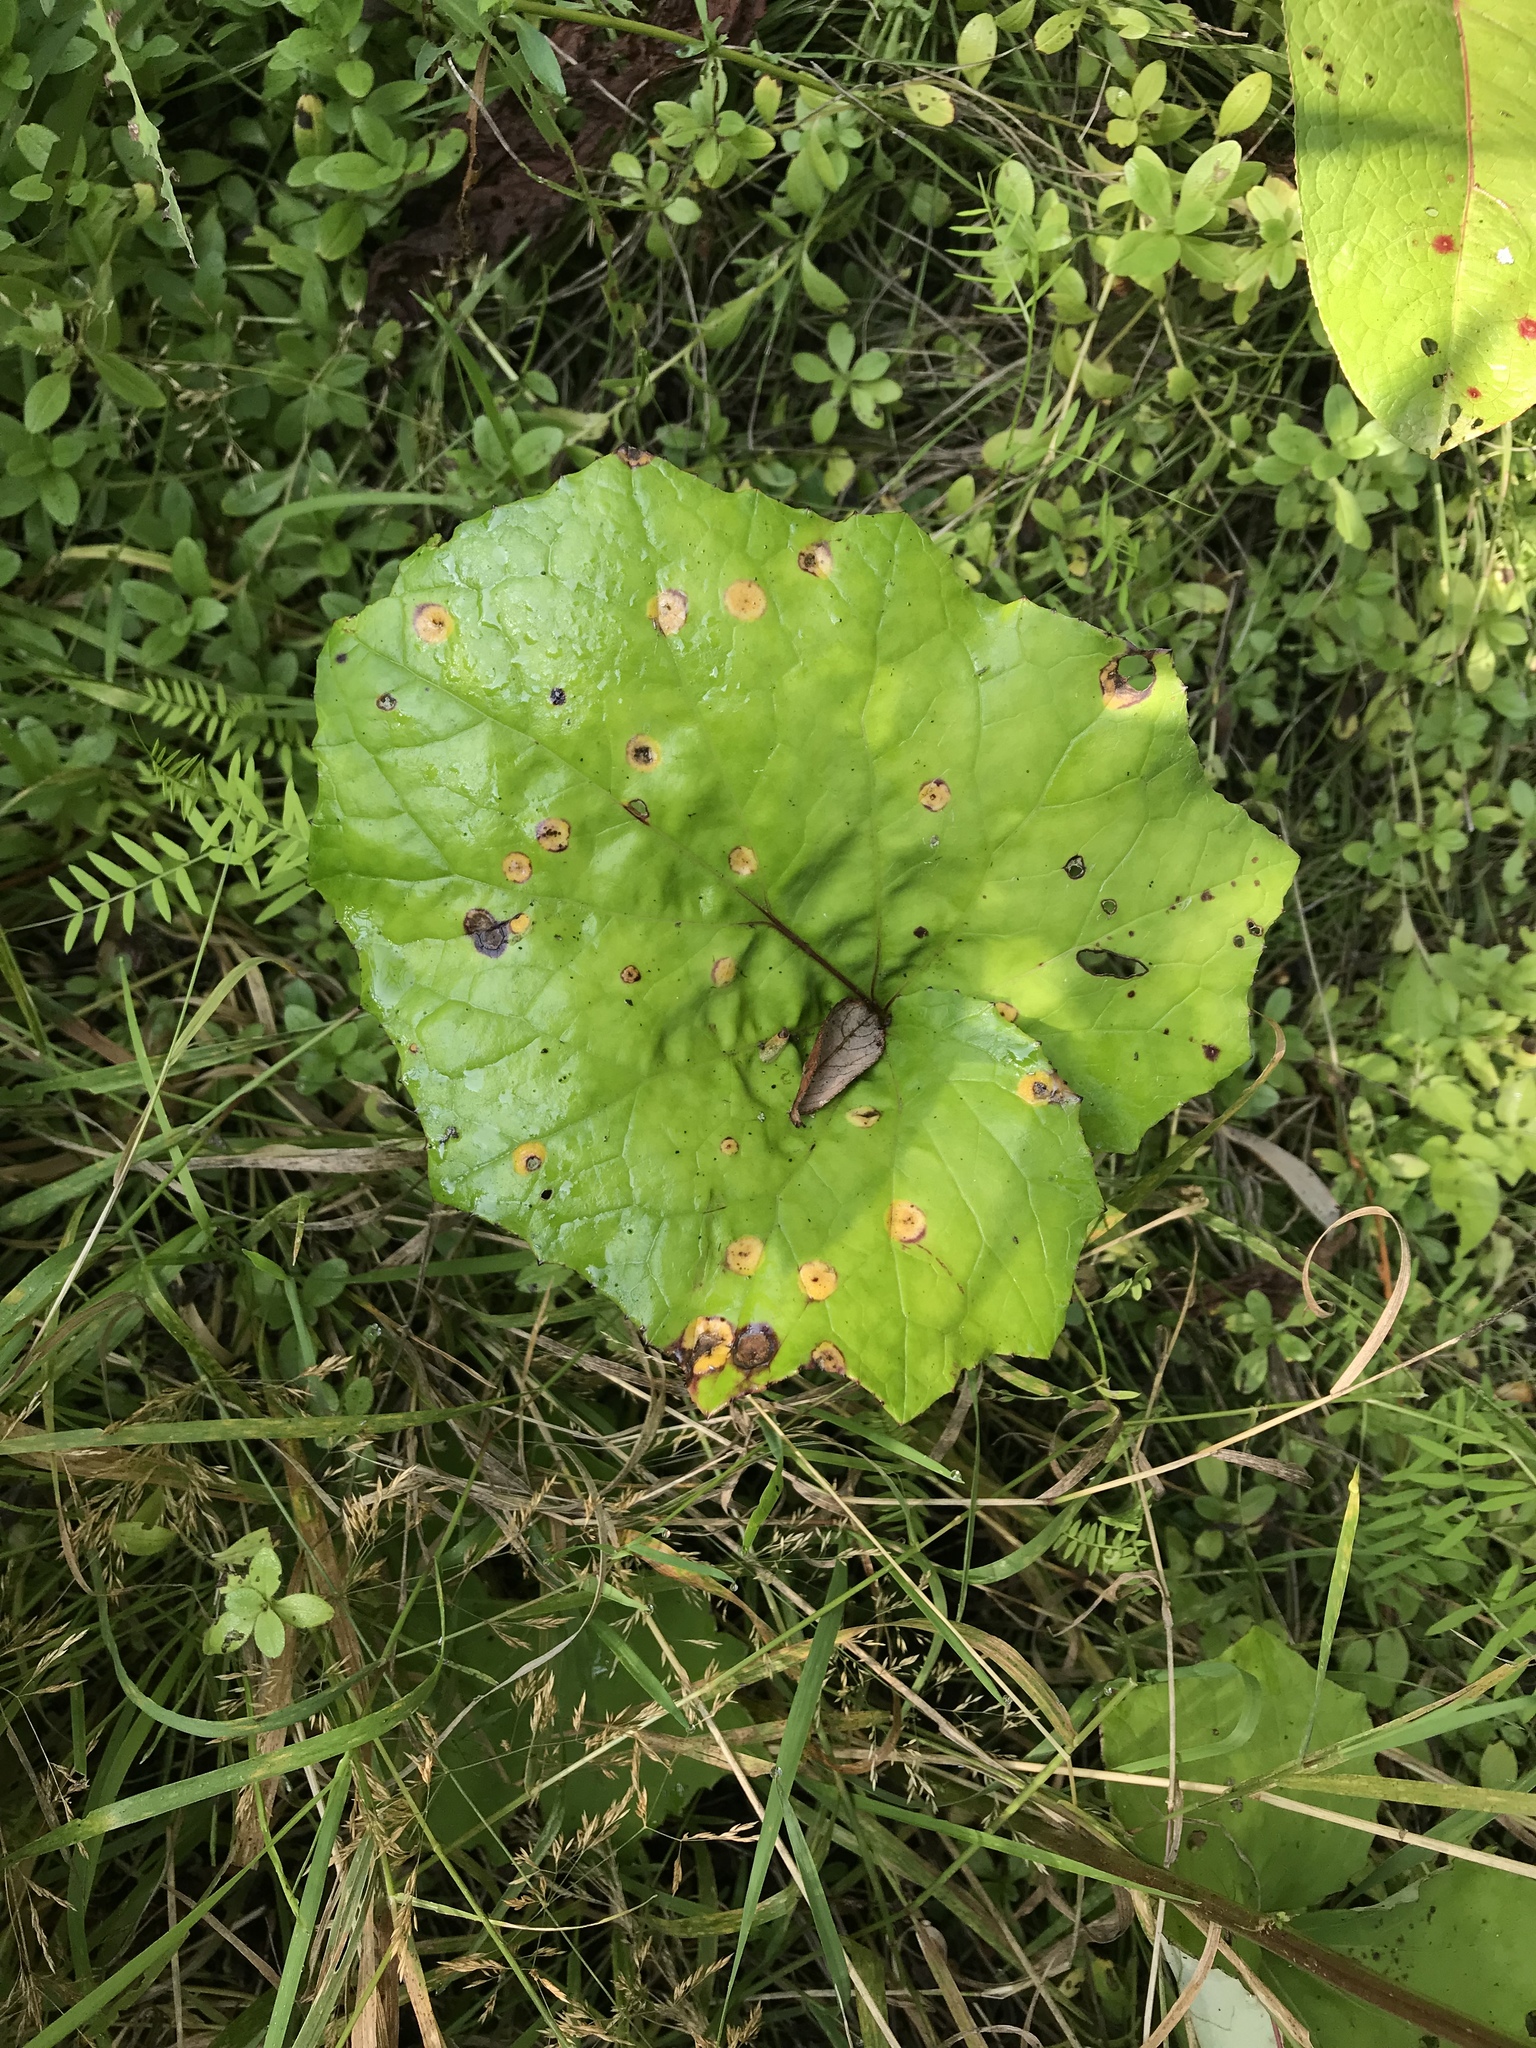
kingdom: Plantae
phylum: Tracheophyta
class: Magnoliopsida
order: Asterales
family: Asteraceae
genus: Tussilago
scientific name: Tussilago farfara
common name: Coltsfoot
